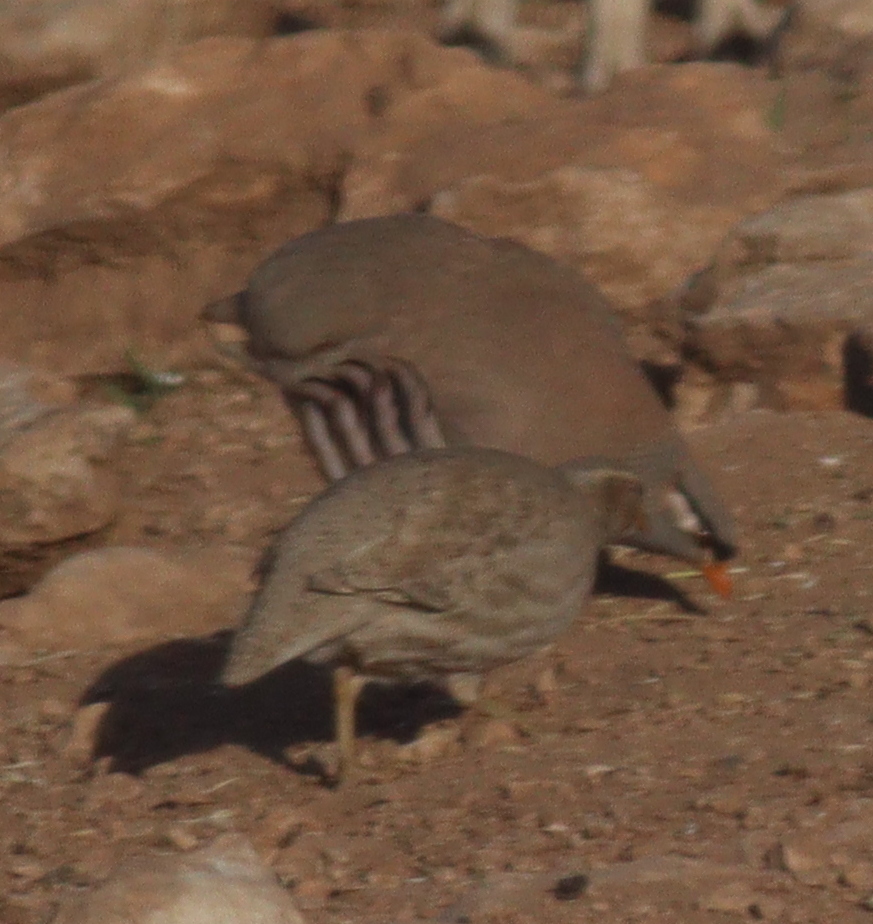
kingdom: Animalia
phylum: Chordata
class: Aves
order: Galliformes
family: Phasianidae
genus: Ammoperdix
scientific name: Ammoperdix griseogularis
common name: See-see partridge
